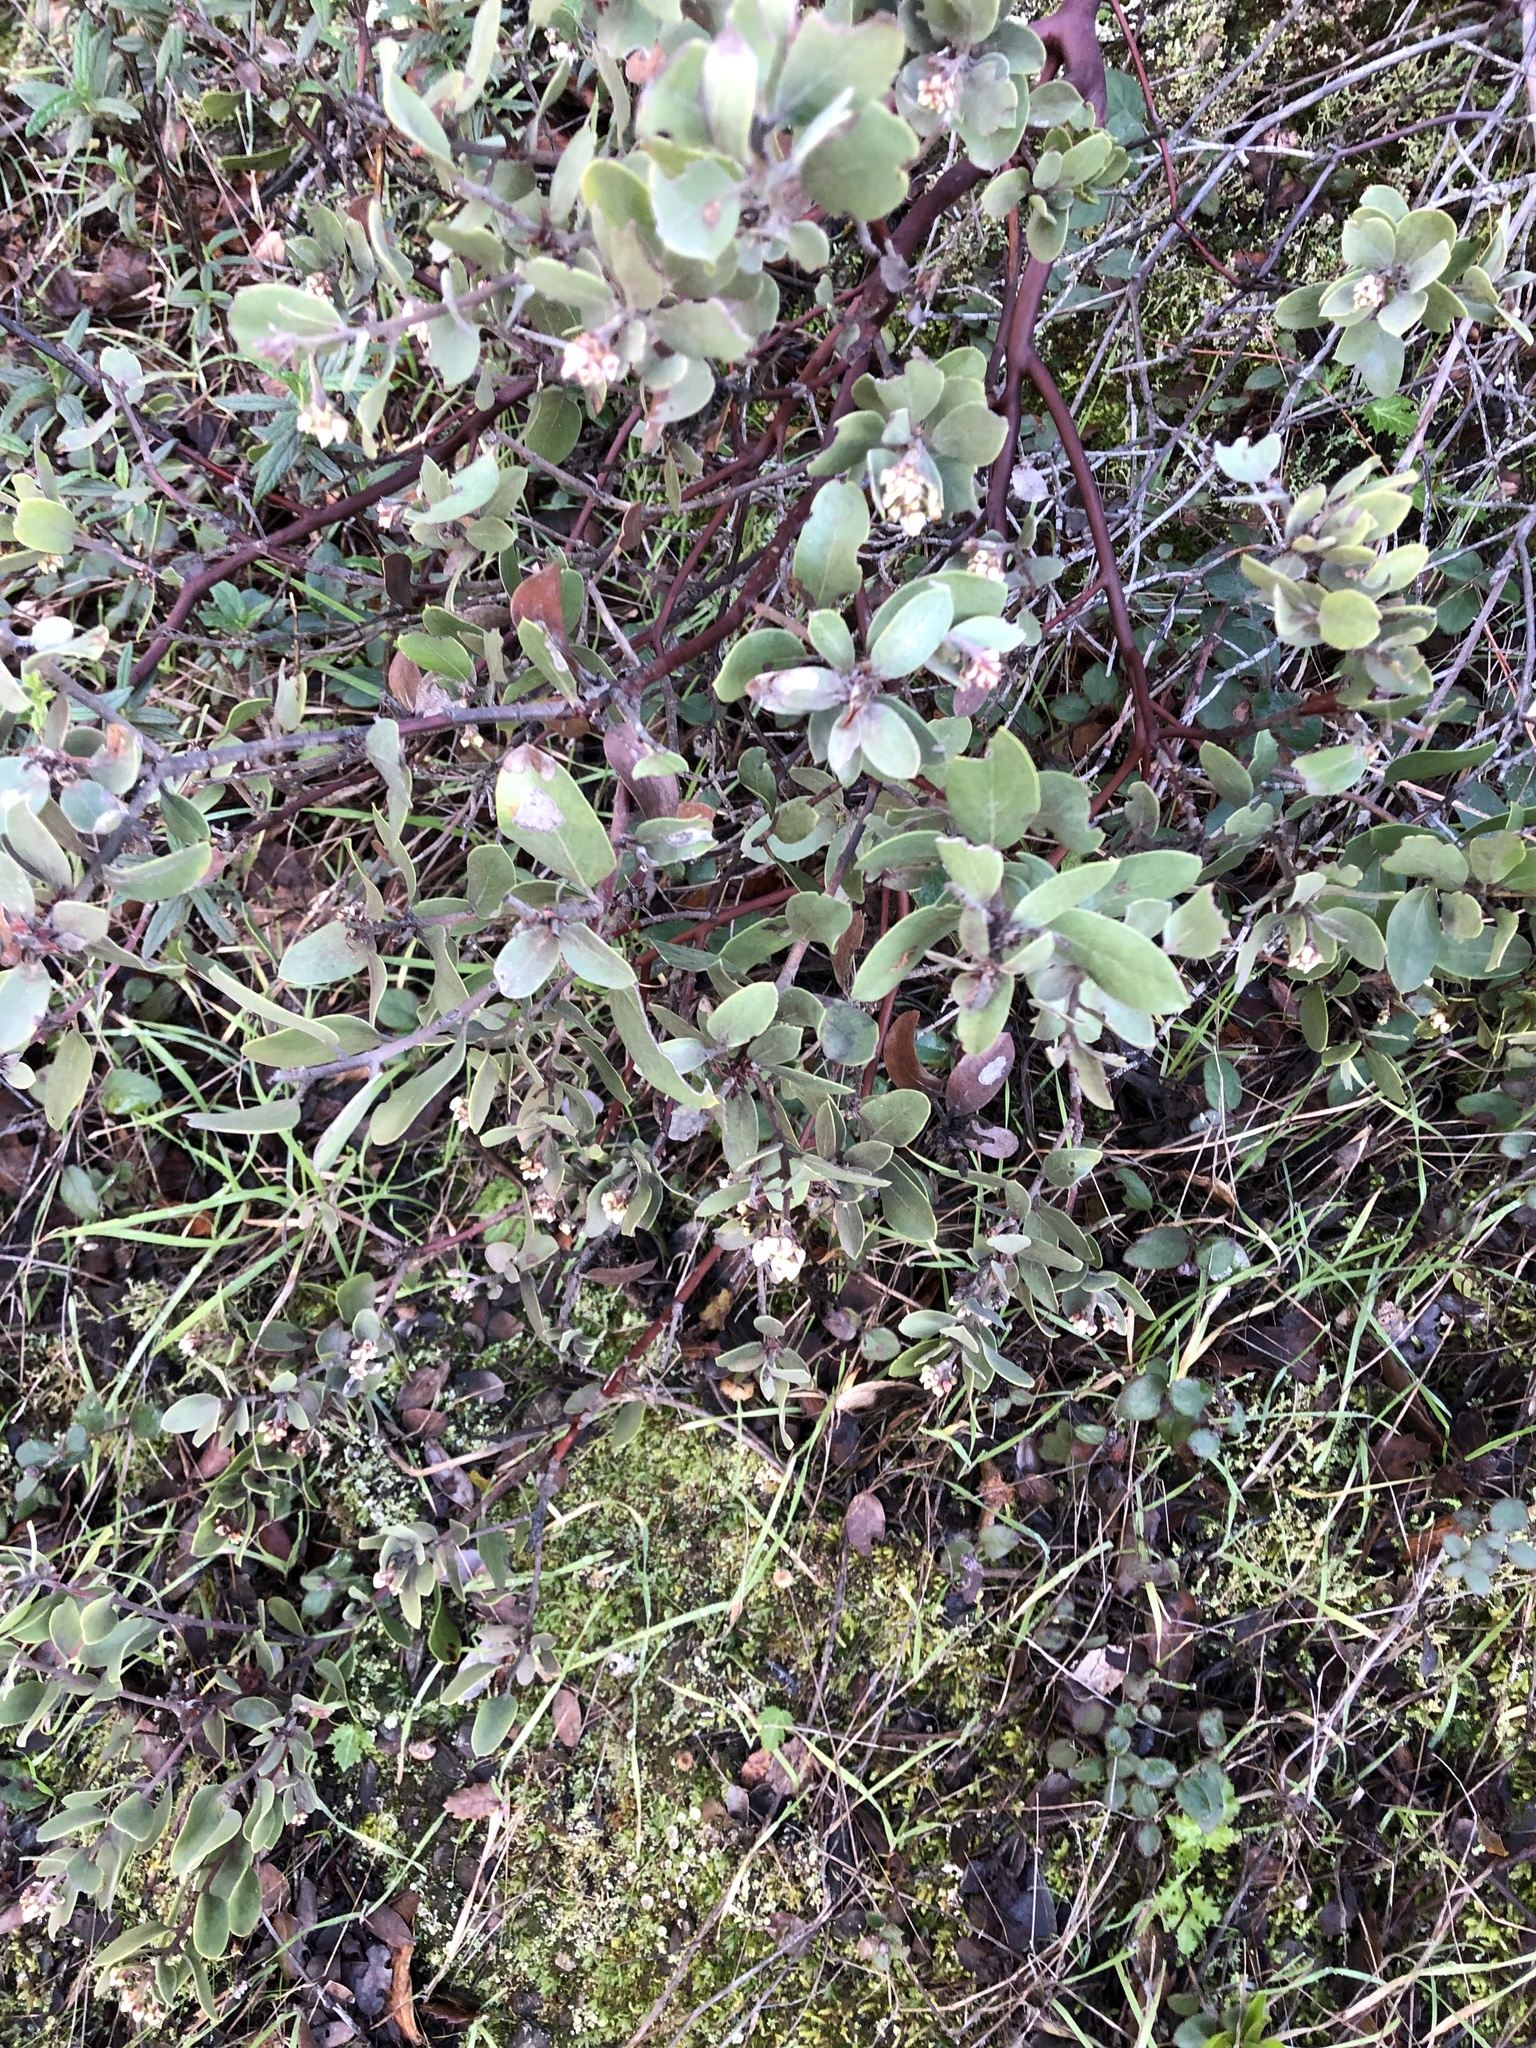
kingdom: Plantae
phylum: Tracheophyta
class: Magnoliopsida
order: Ericales
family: Ericaceae
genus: Arctostaphylos
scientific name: Arctostaphylos glandulosa
